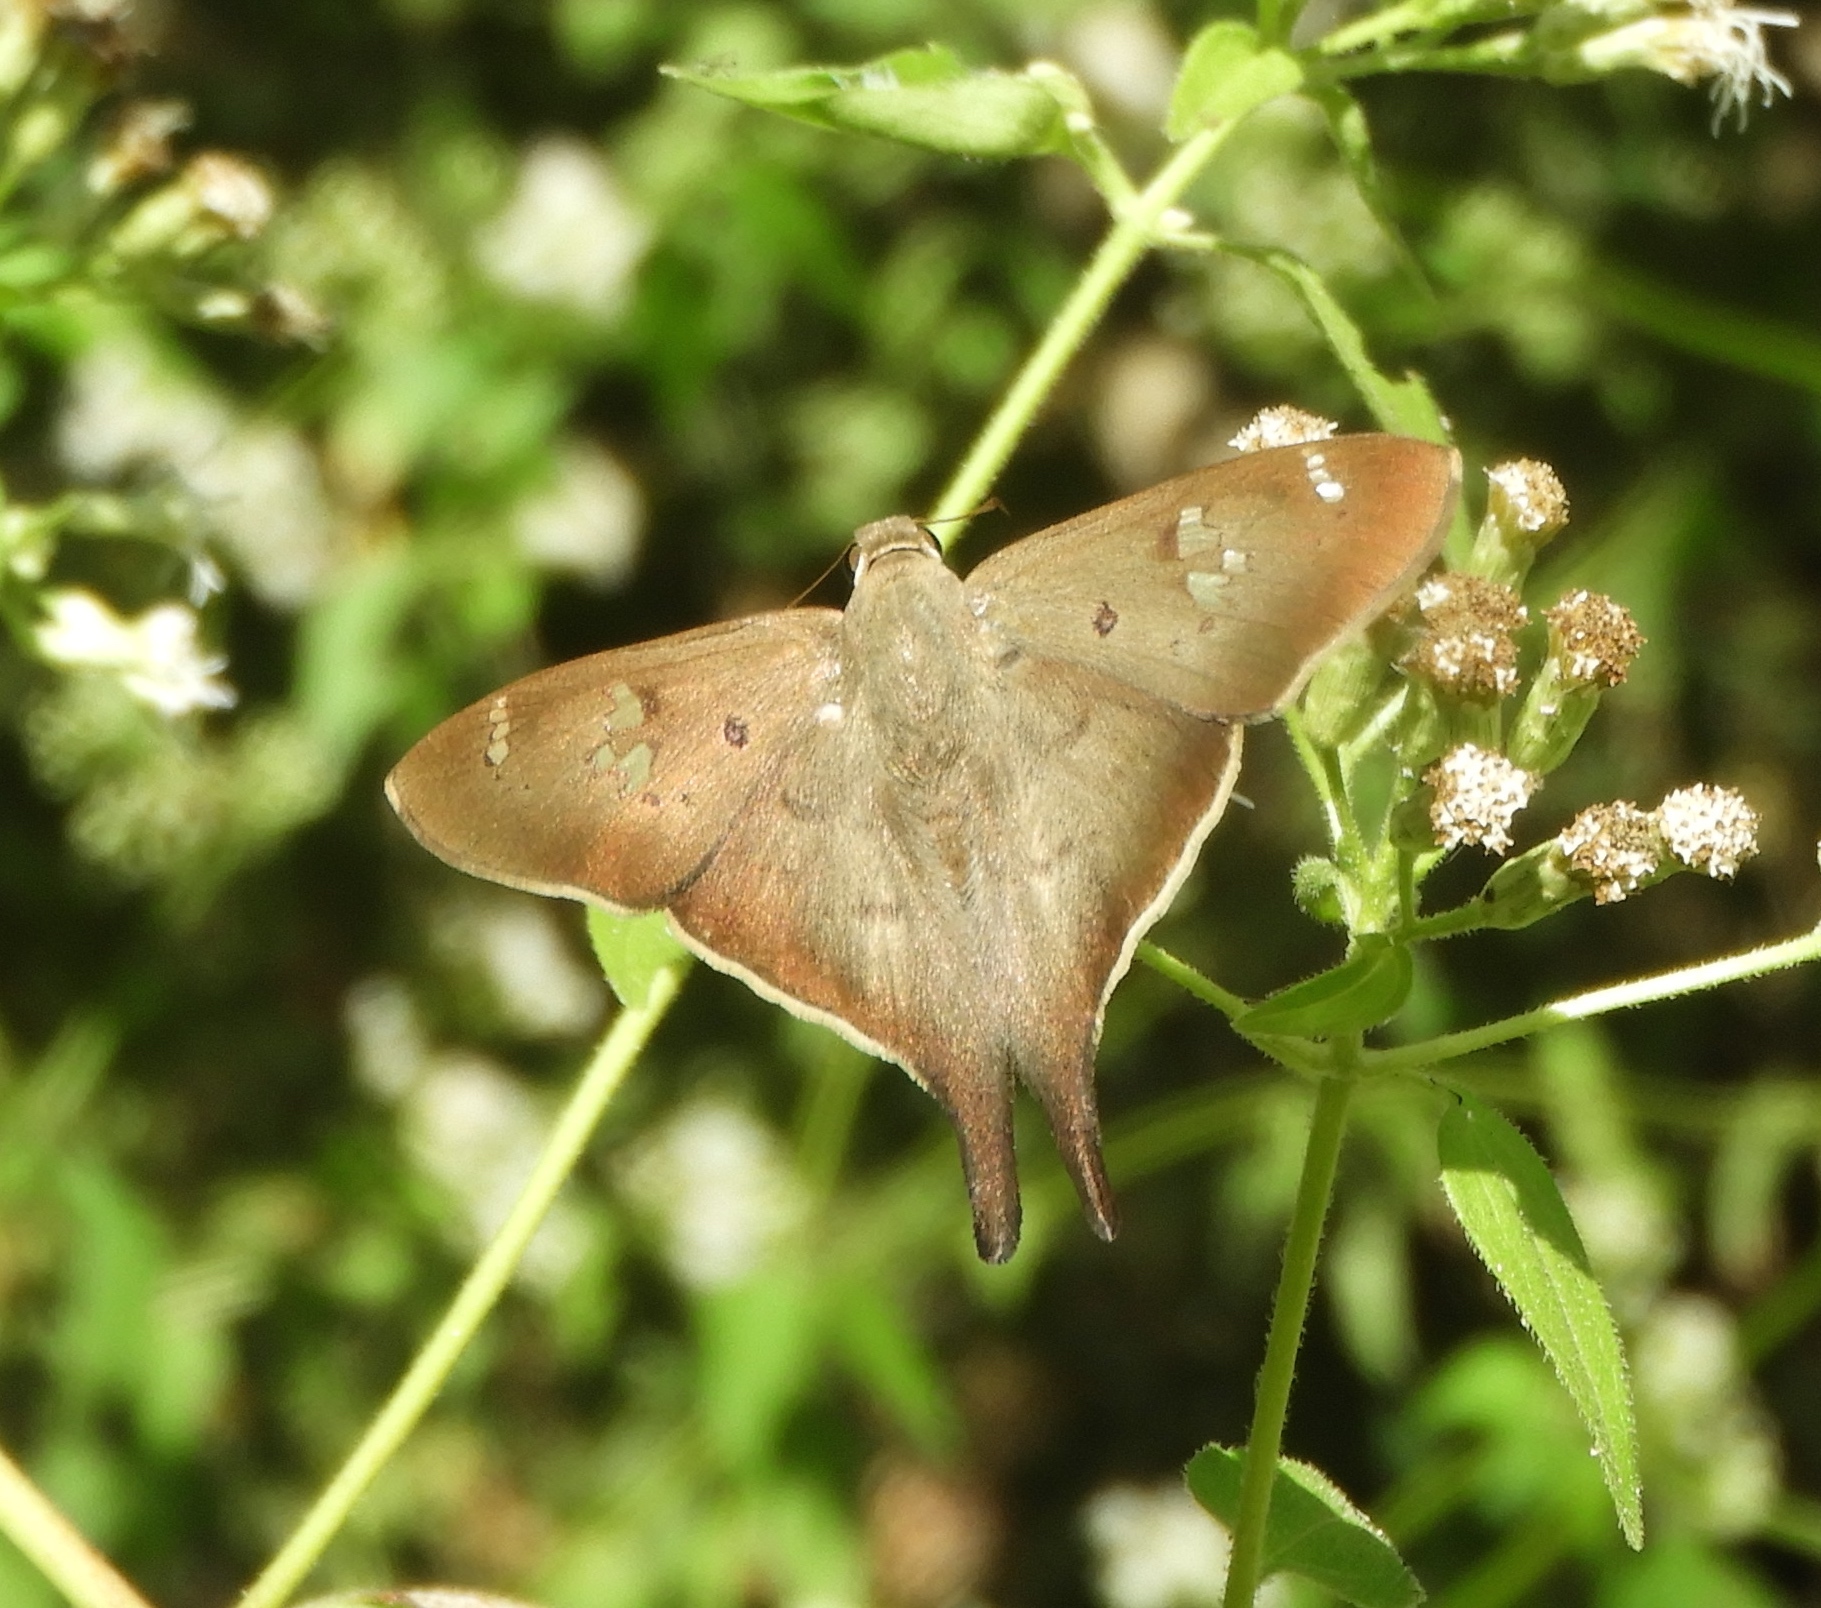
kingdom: Animalia
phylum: Arthropoda
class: Insecta
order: Lepidoptera
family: Hesperiidae
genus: Ectomis
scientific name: Ectomis
